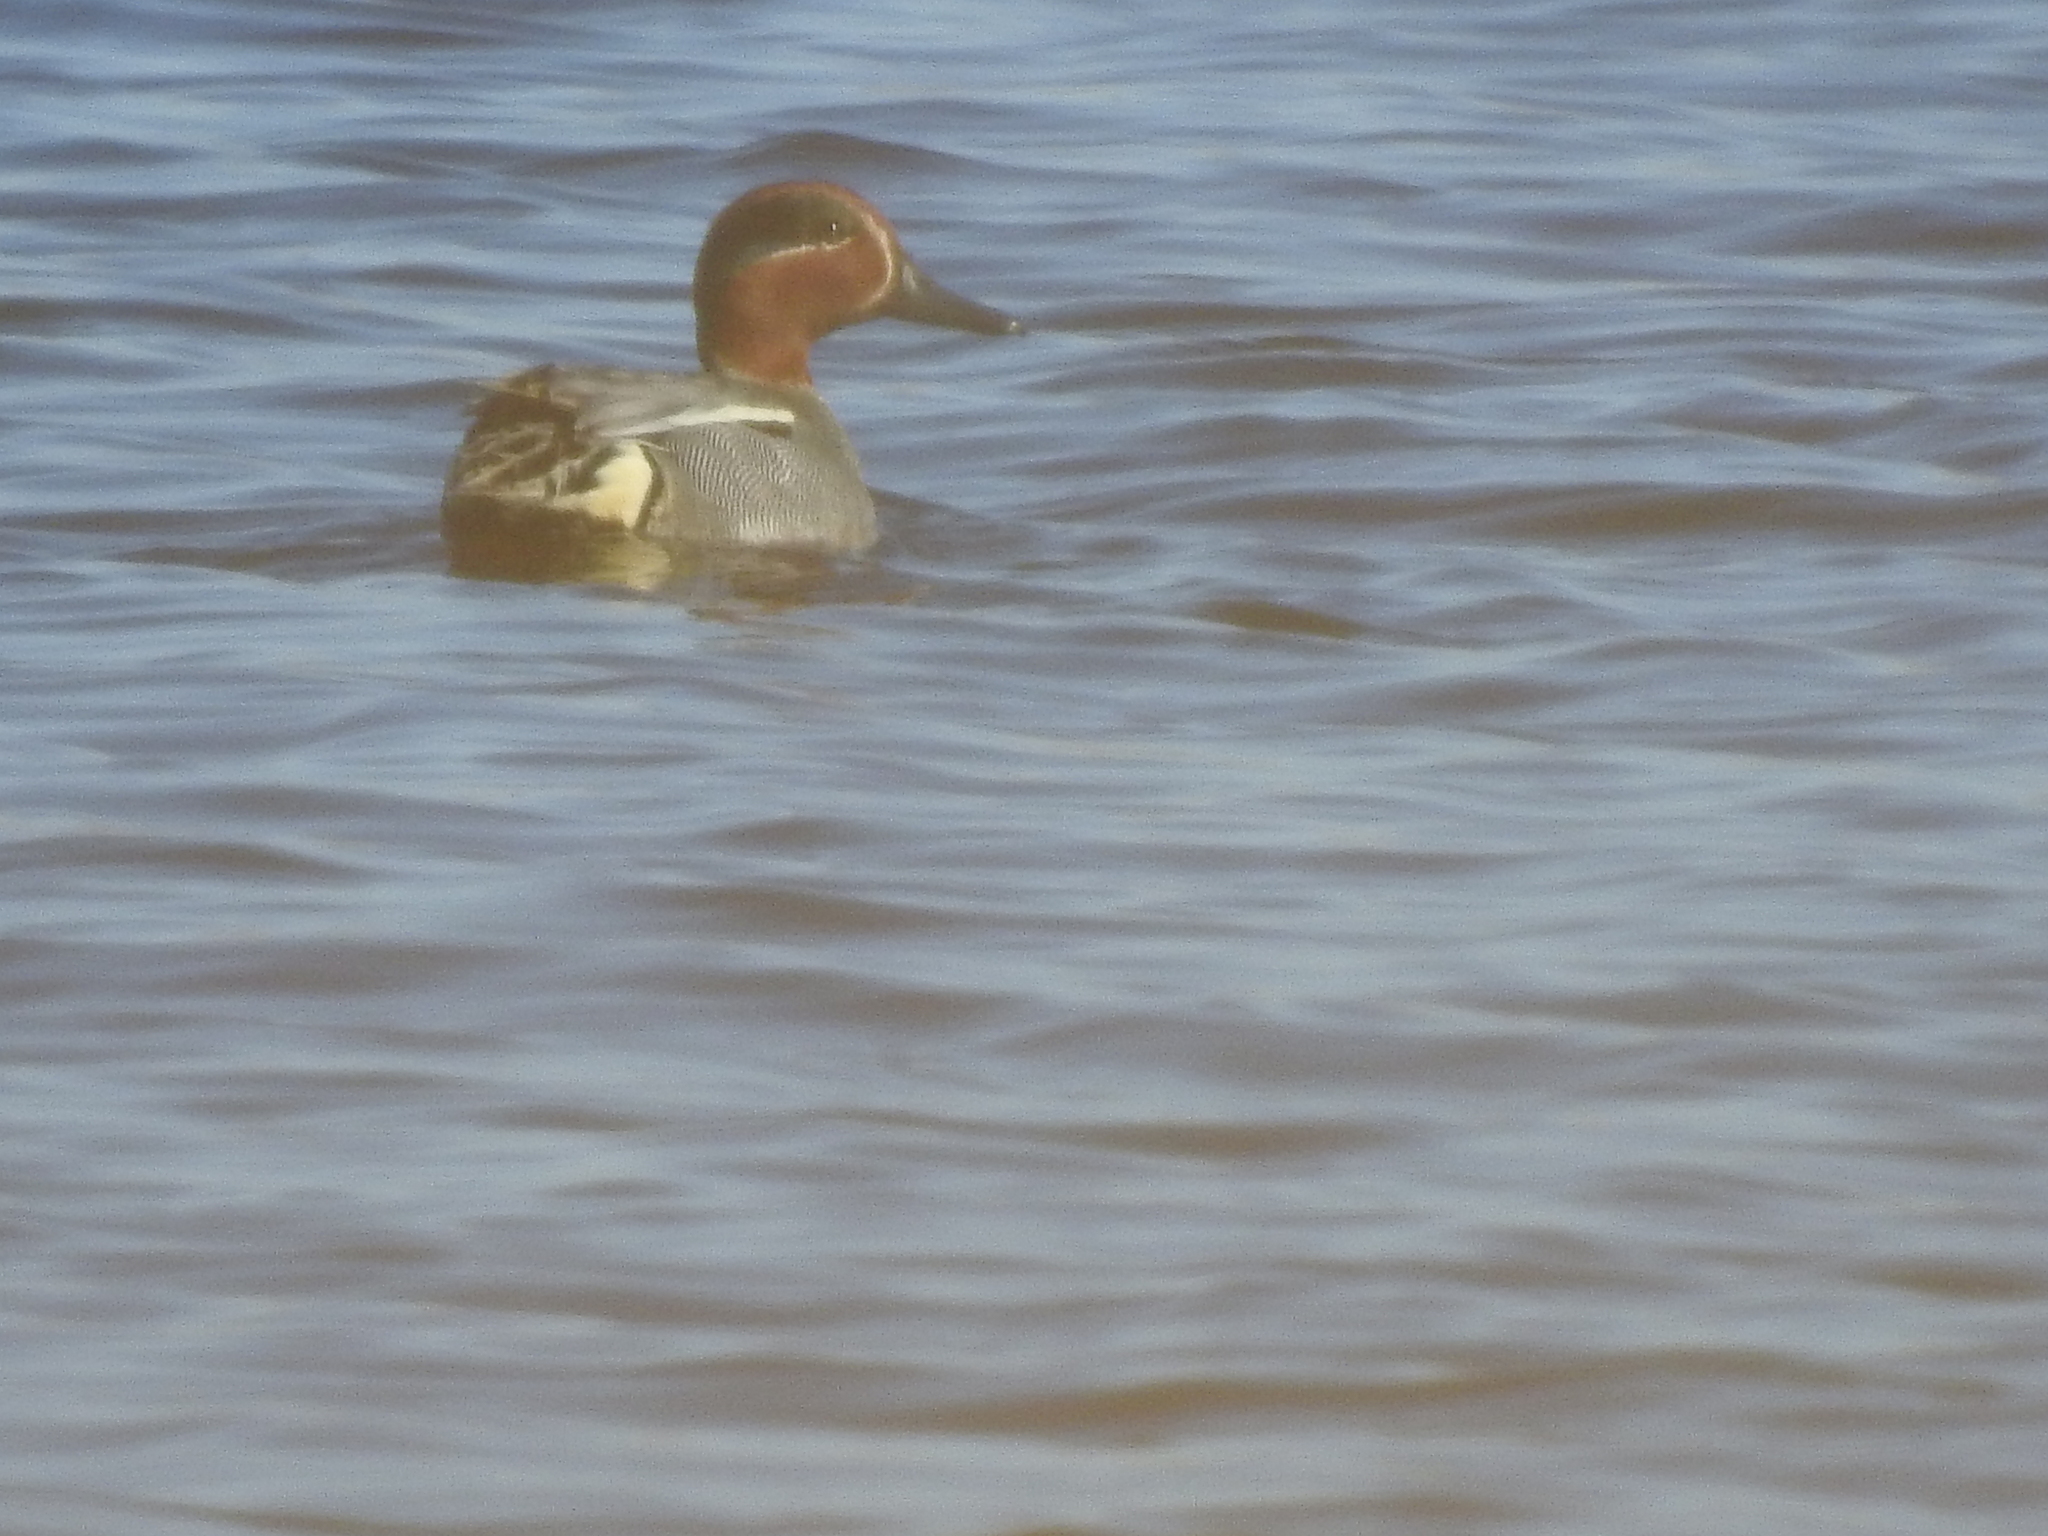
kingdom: Animalia
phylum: Chordata
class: Aves
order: Anseriformes
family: Anatidae
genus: Anas
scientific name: Anas crecca
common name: Eurasian teal
